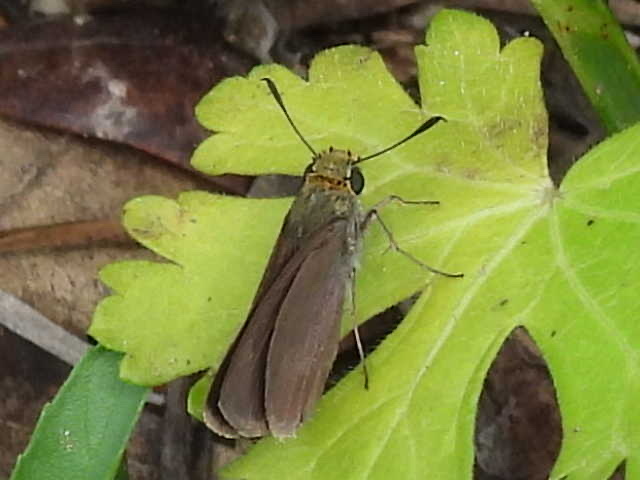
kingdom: Animalia
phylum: Arthropoda
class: Insecta
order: Lepidoptera
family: Hesperiidae
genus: Euphyes
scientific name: Euphyes vestris
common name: Dun skipper
